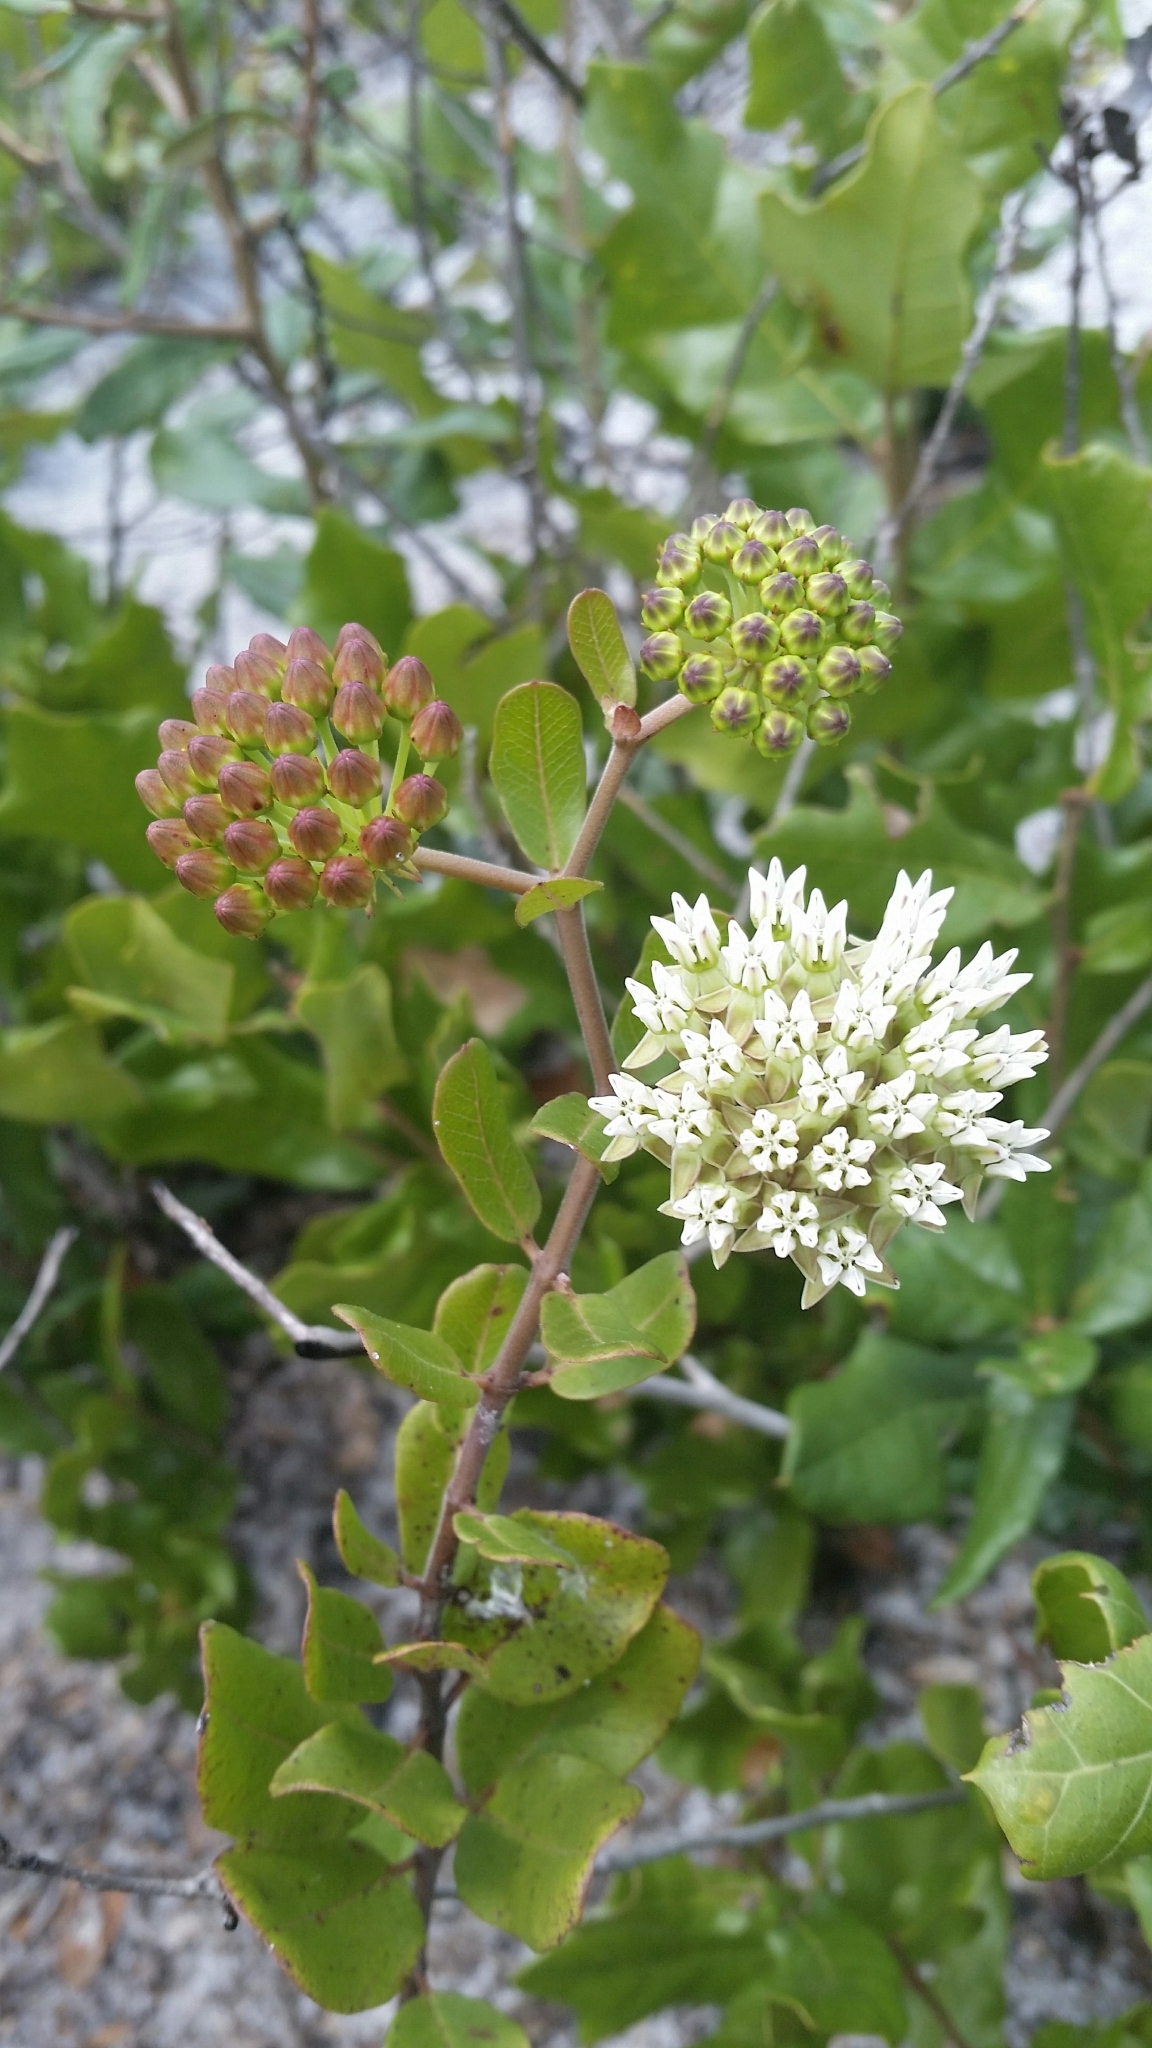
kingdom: Plantae
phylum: Tracheophyta
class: Magnoliopsida
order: Gentianales
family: Apocynaceae
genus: Asclepias
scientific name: Asclepias curtissii
